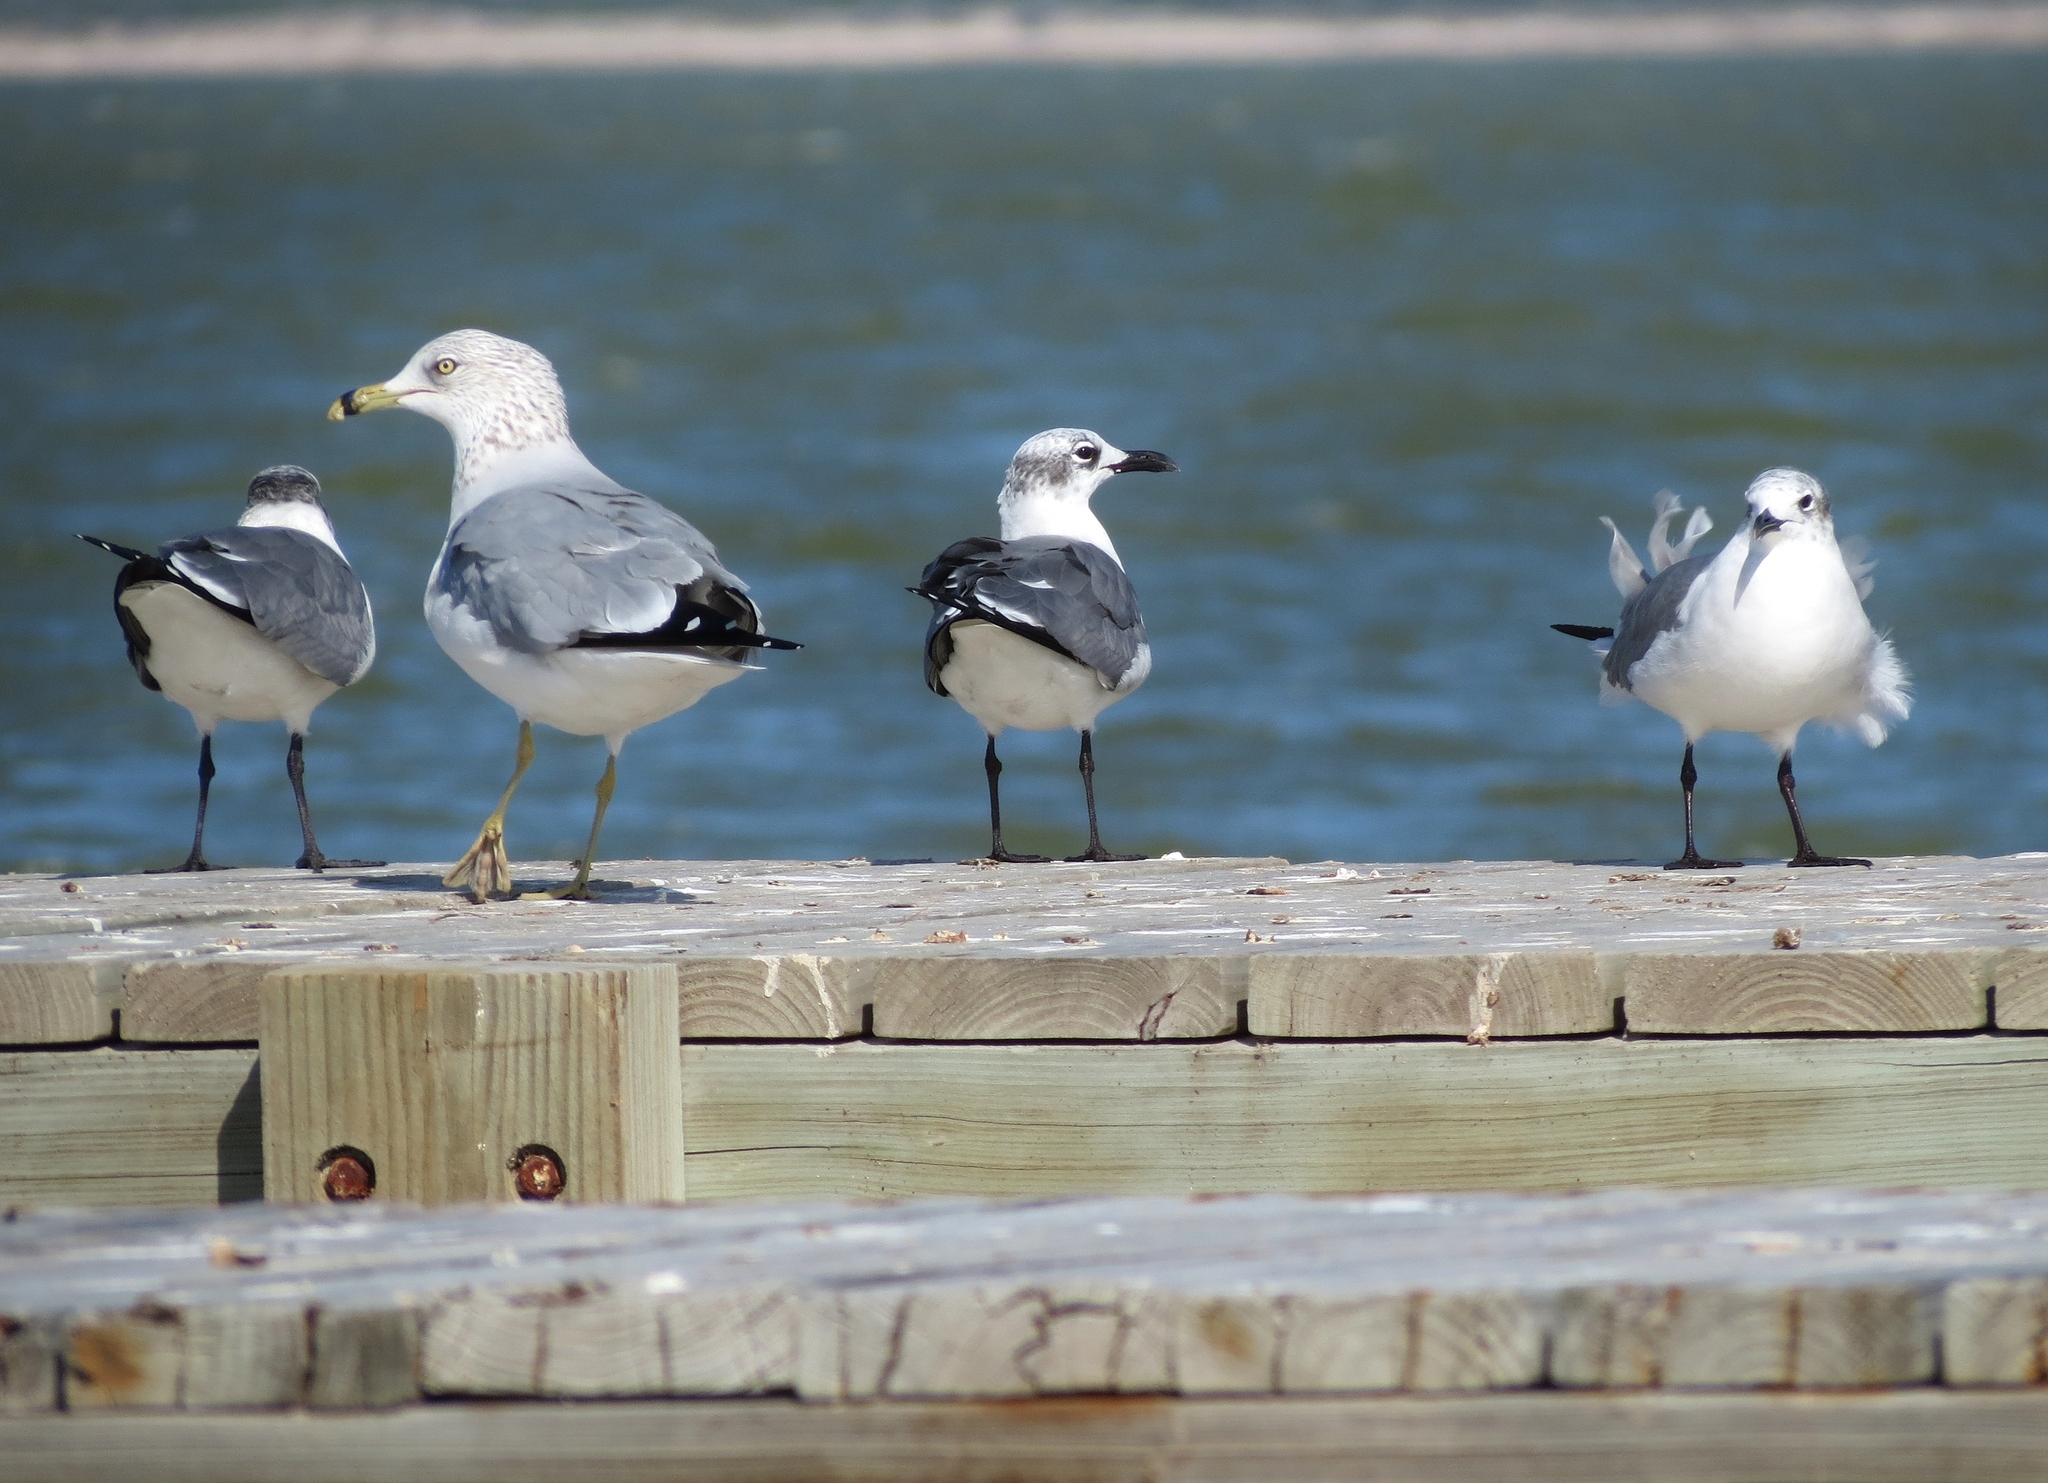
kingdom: Animalia
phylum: Chordata
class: Aves
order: Charadriiformes
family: Laridae
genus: Larus
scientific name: Larus delawarensis
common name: Ring-billed gull
